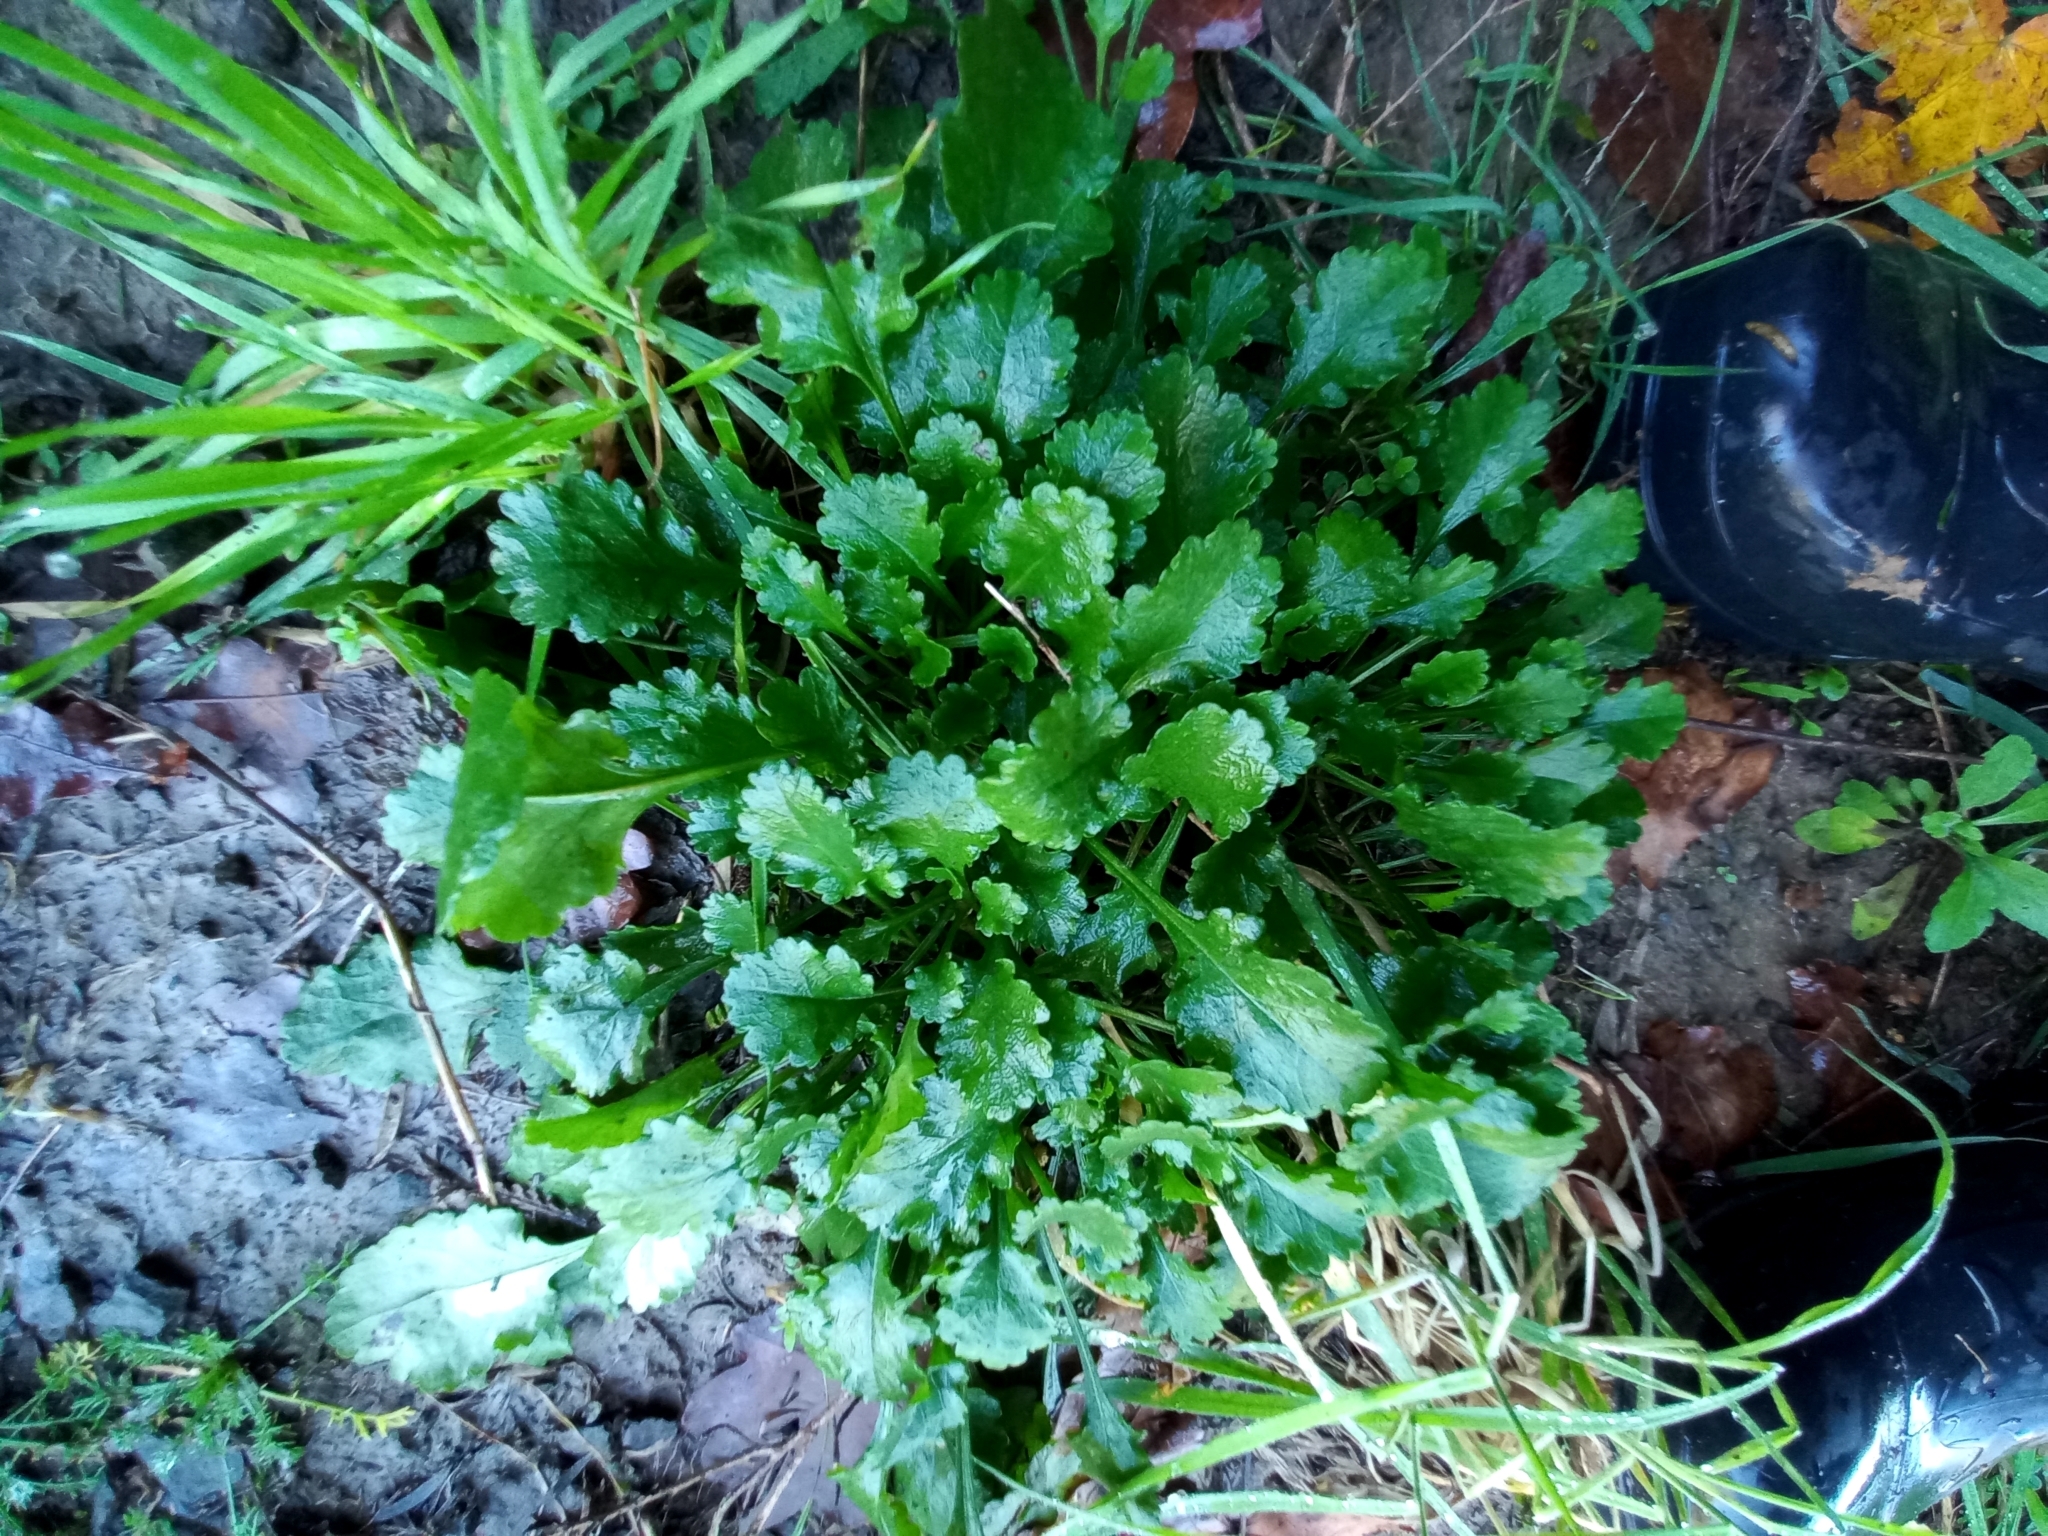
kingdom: Plantae
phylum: Tracheophyta
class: Magnoliopsida
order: Asterales
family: Asteraceae
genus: Leucanthemum
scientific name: Leucanthemum vulgare
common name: Oxeye daisy
